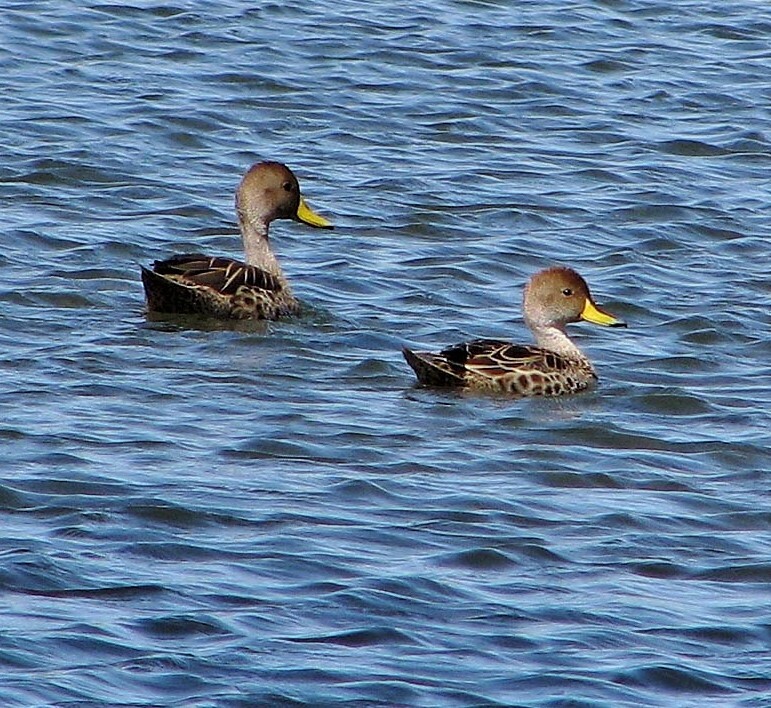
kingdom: Animalia
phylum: Chordata
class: Aves
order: Anseriformes
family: Anatidae
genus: Anas
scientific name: Anas georgica
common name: Yellow-billed pintail
